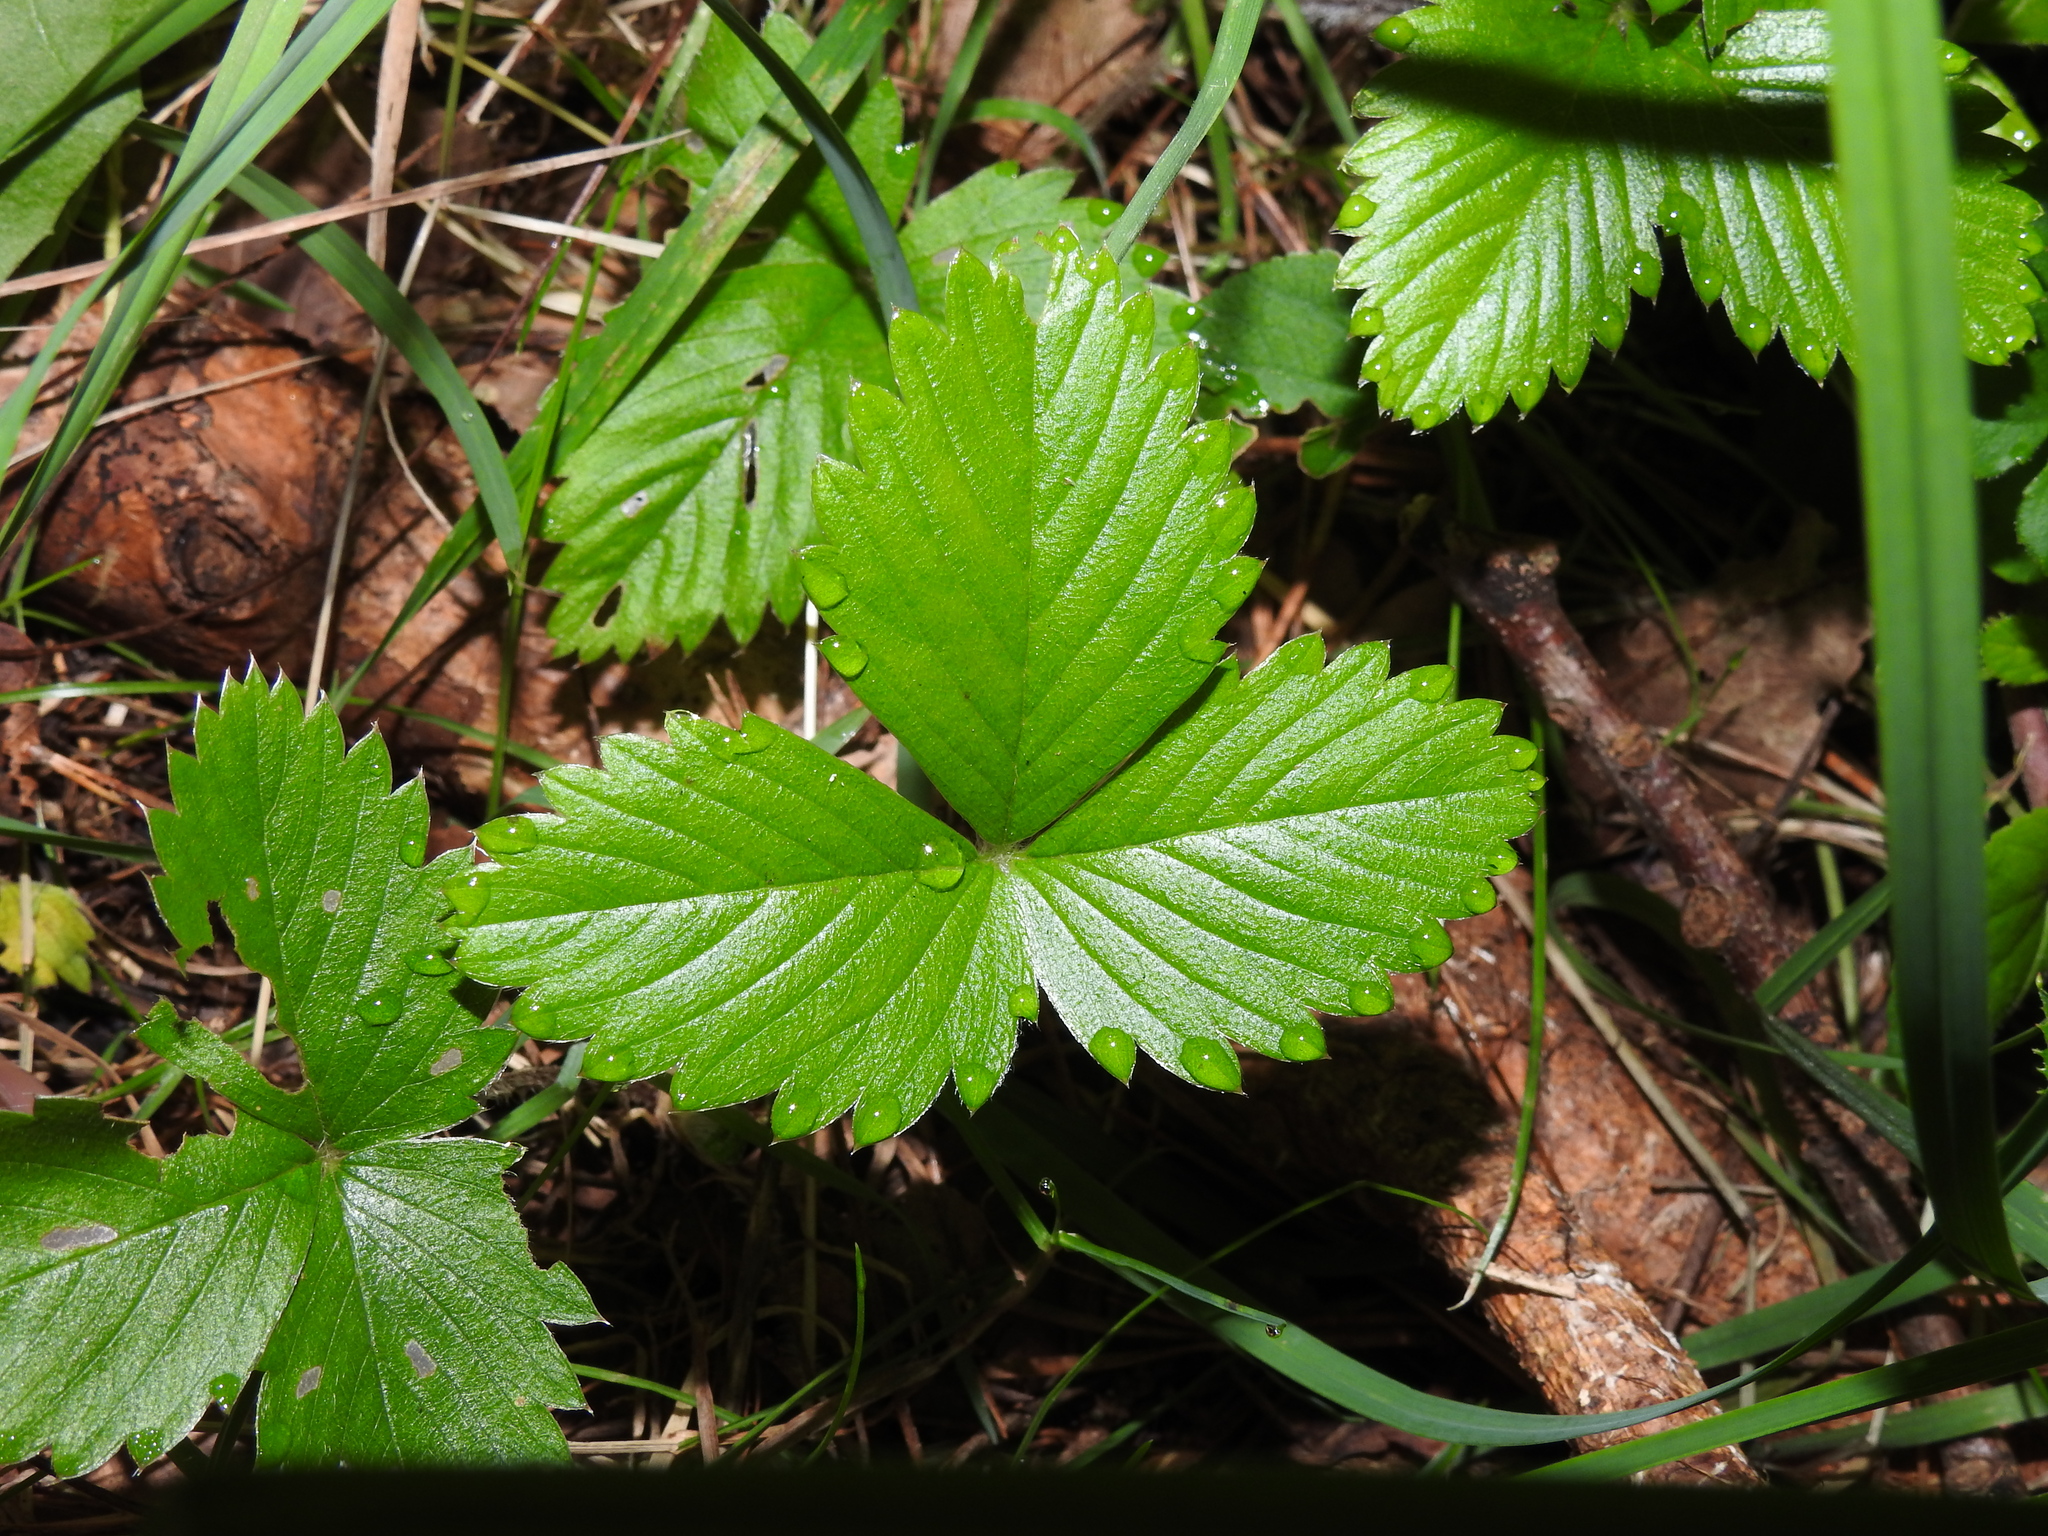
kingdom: Plantae
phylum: Tracheophyta
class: Magnoliopsida
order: Rosales
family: Rosaceae
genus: Fragaria
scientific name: Fragaria vesca
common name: Wild strawberry
